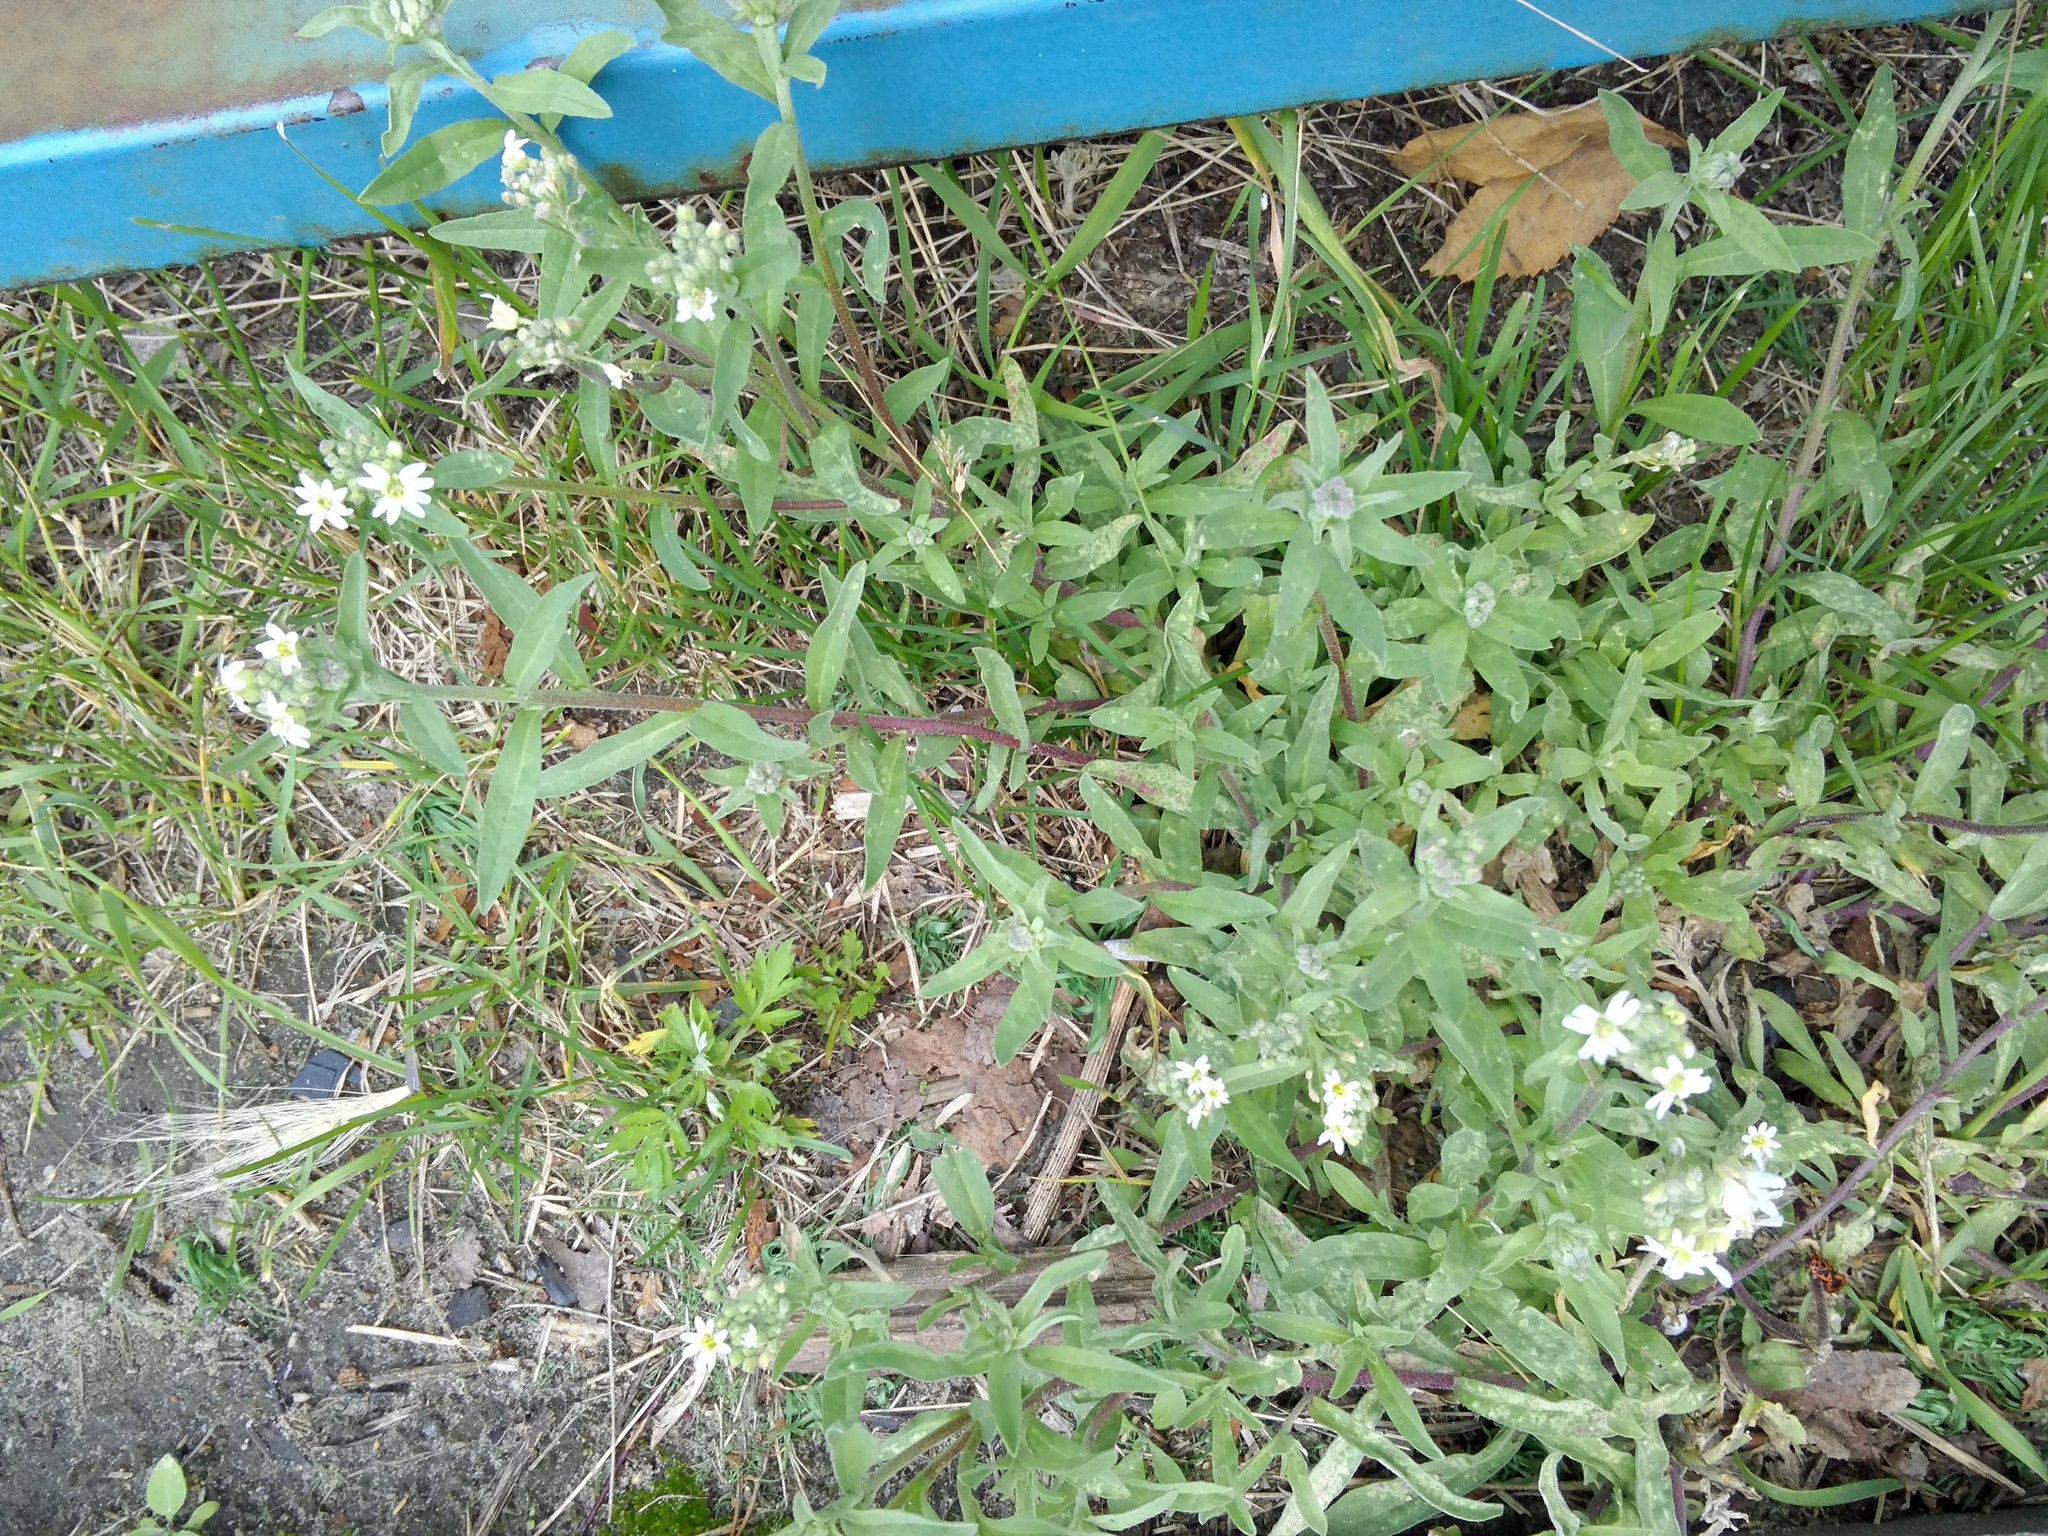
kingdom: Plantae
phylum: Tracheophyta
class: Magnoliopsida
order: Brassicales
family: Brassicaceae
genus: Berteroa
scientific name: Berteroa incana
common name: Hoary alison
